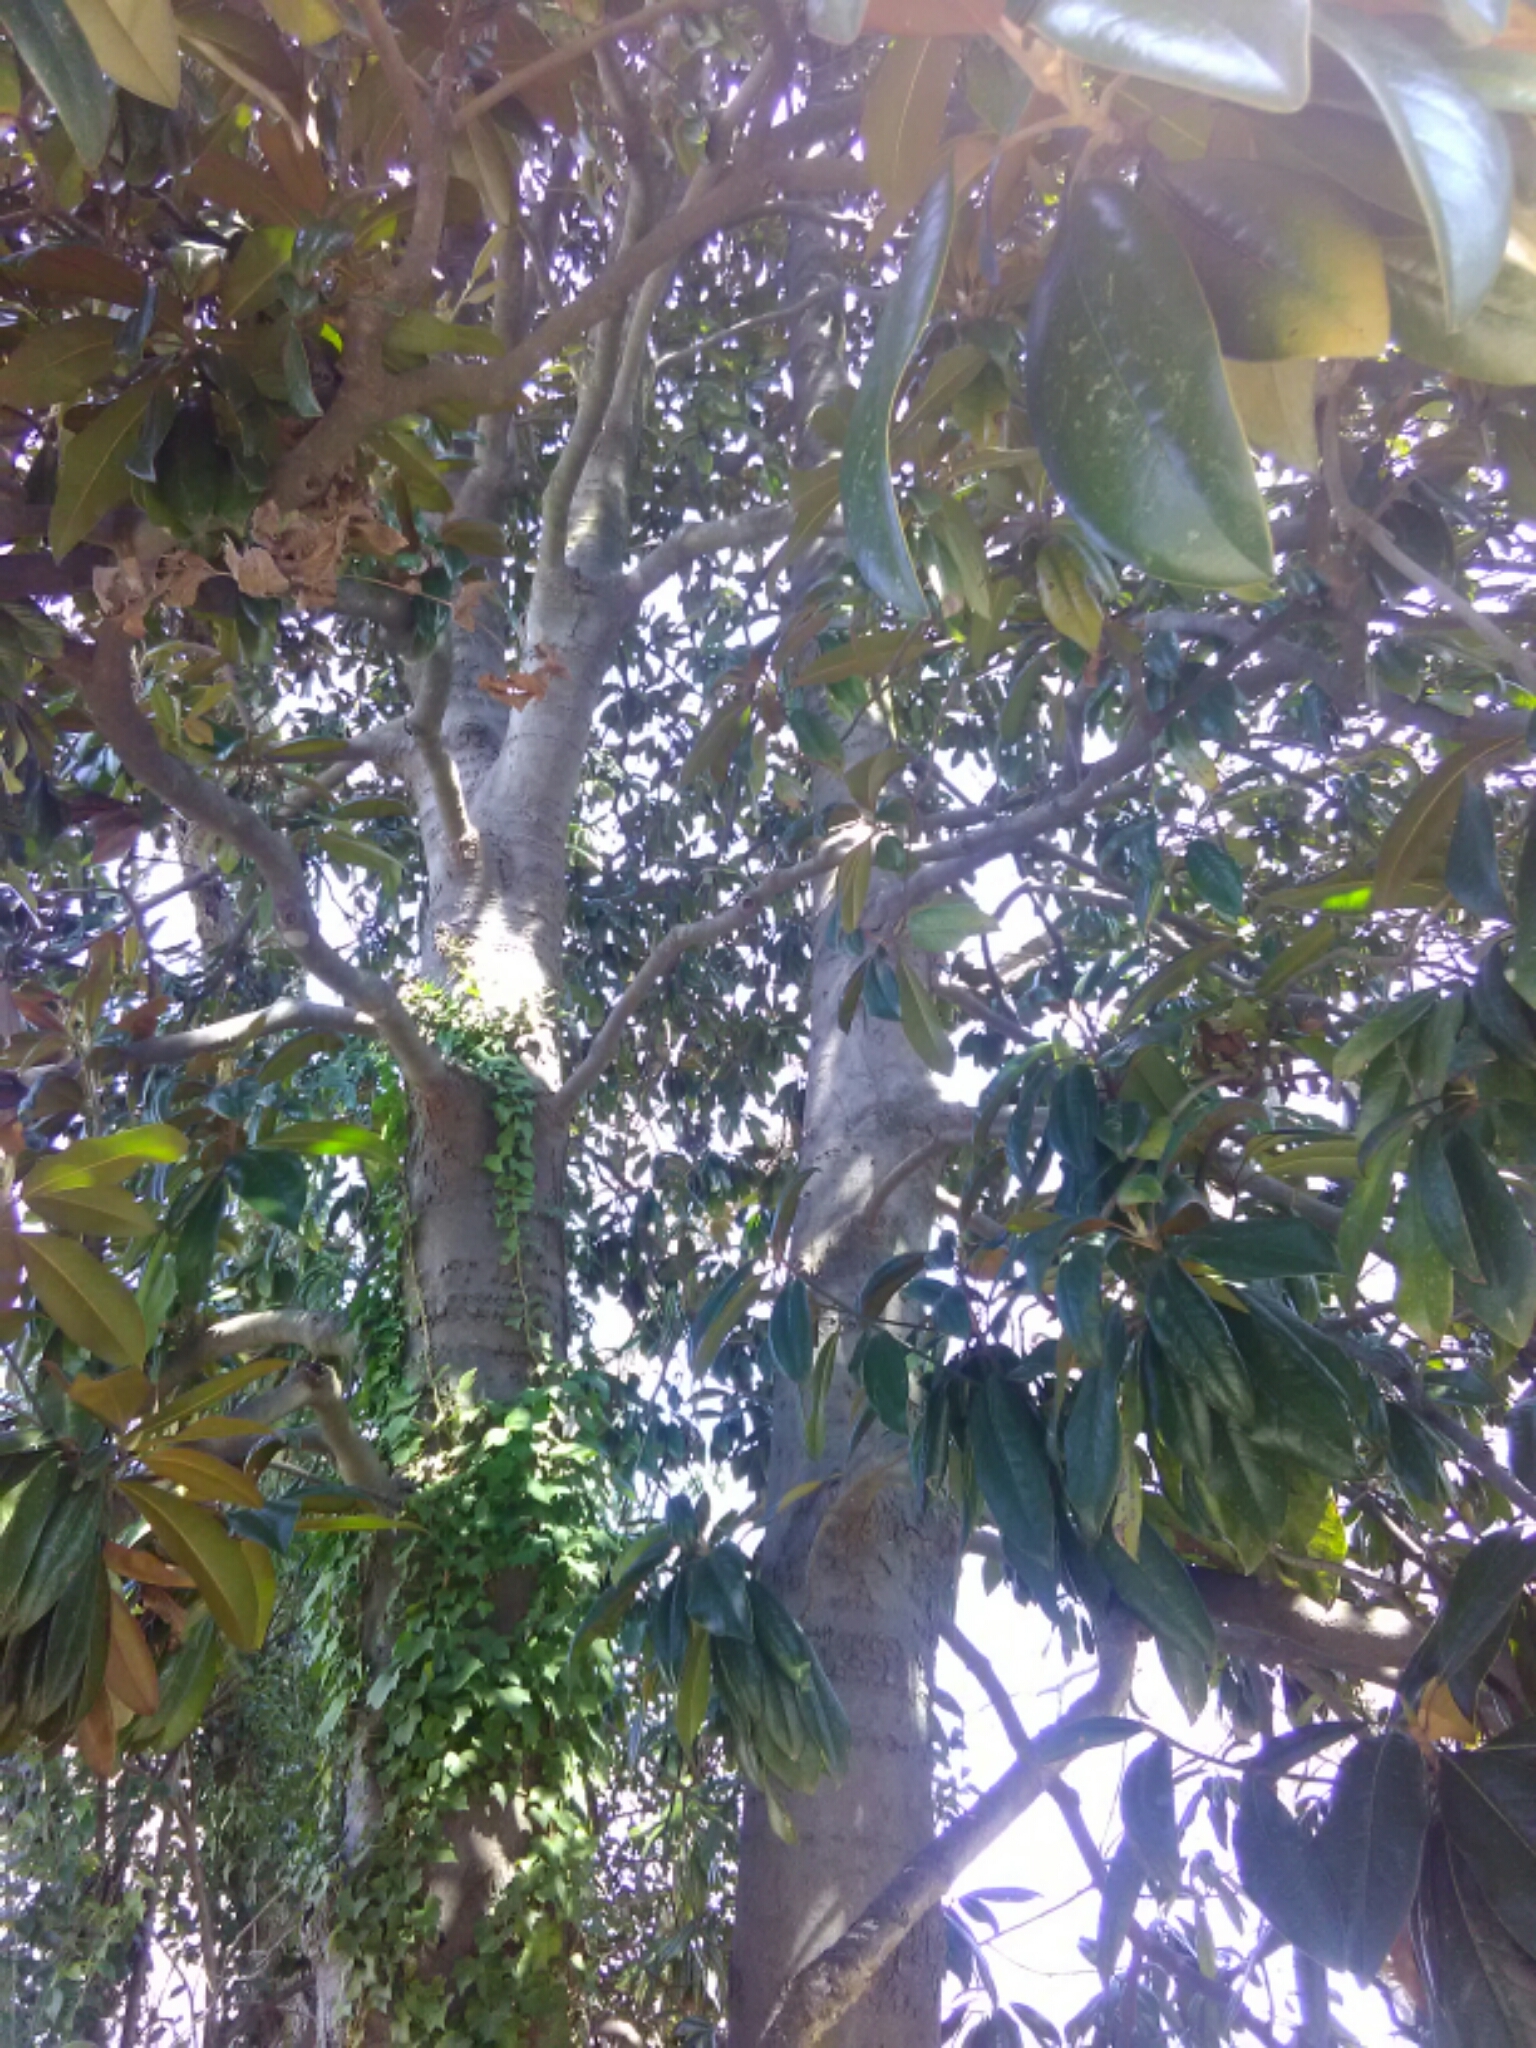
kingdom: Plantae
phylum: Tracheophyta
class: Magnoliopsida
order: Magnoliales
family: Magnoliaceae
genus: Magnolia
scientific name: Magnolia grandiflora
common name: Southern magnolia
